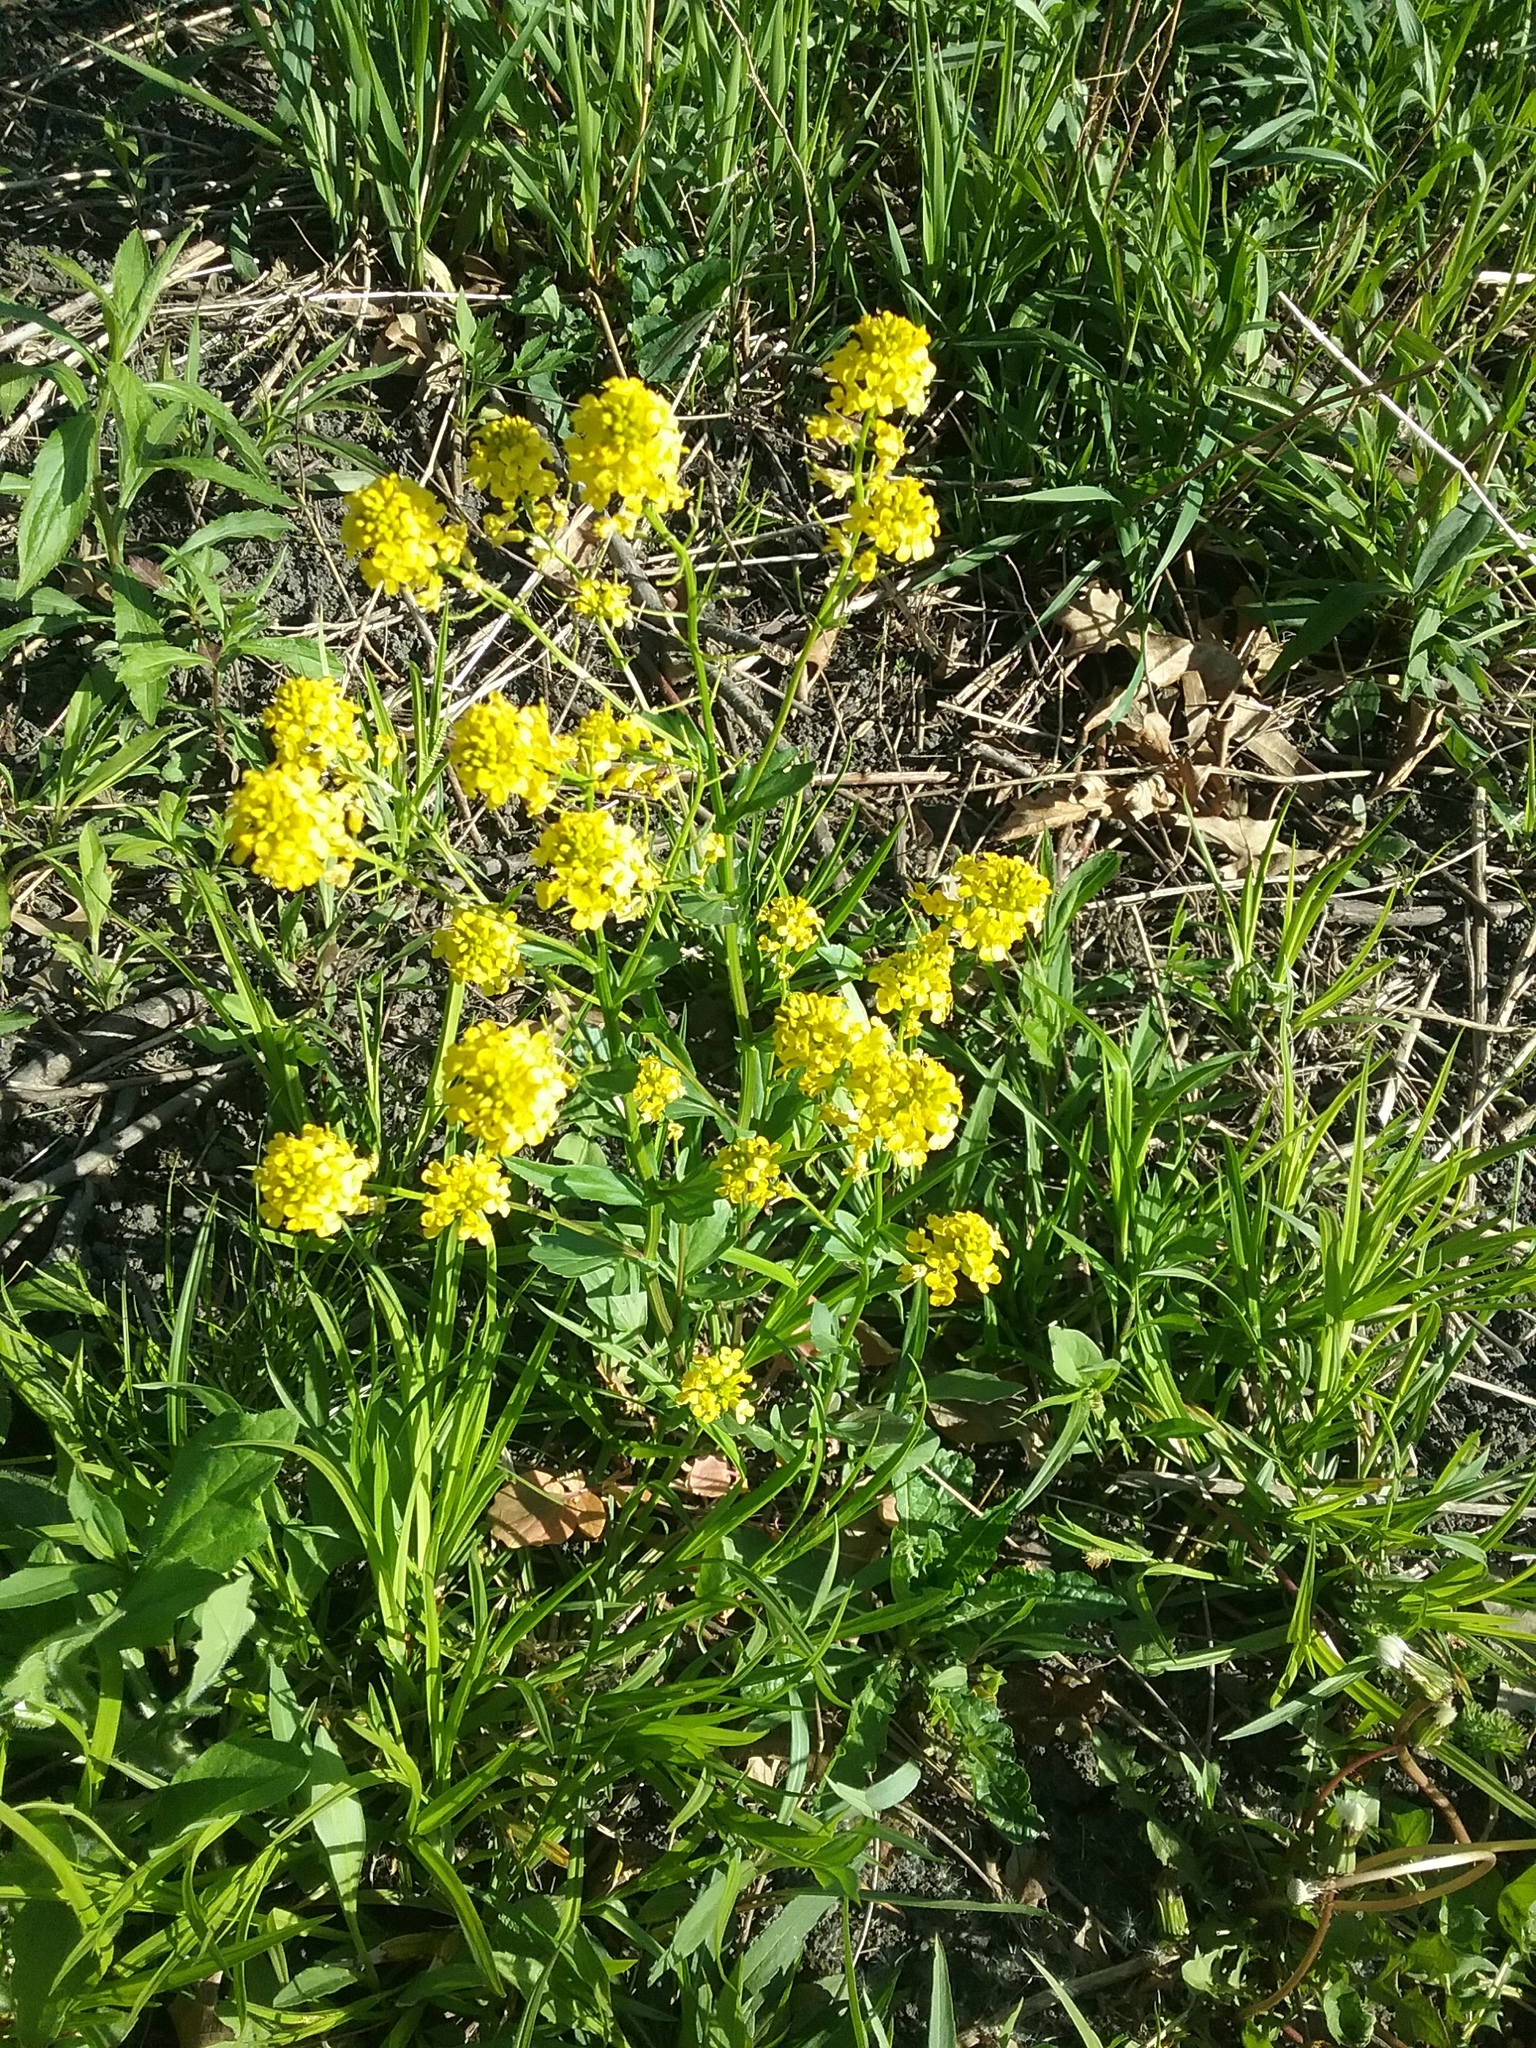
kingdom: Plantae
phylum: Tracheophyta
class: Magnoliopsida
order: Brassicales
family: Brassicaceae
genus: Barbarea
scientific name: Barbarea vulgaris
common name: Cressy-greens
